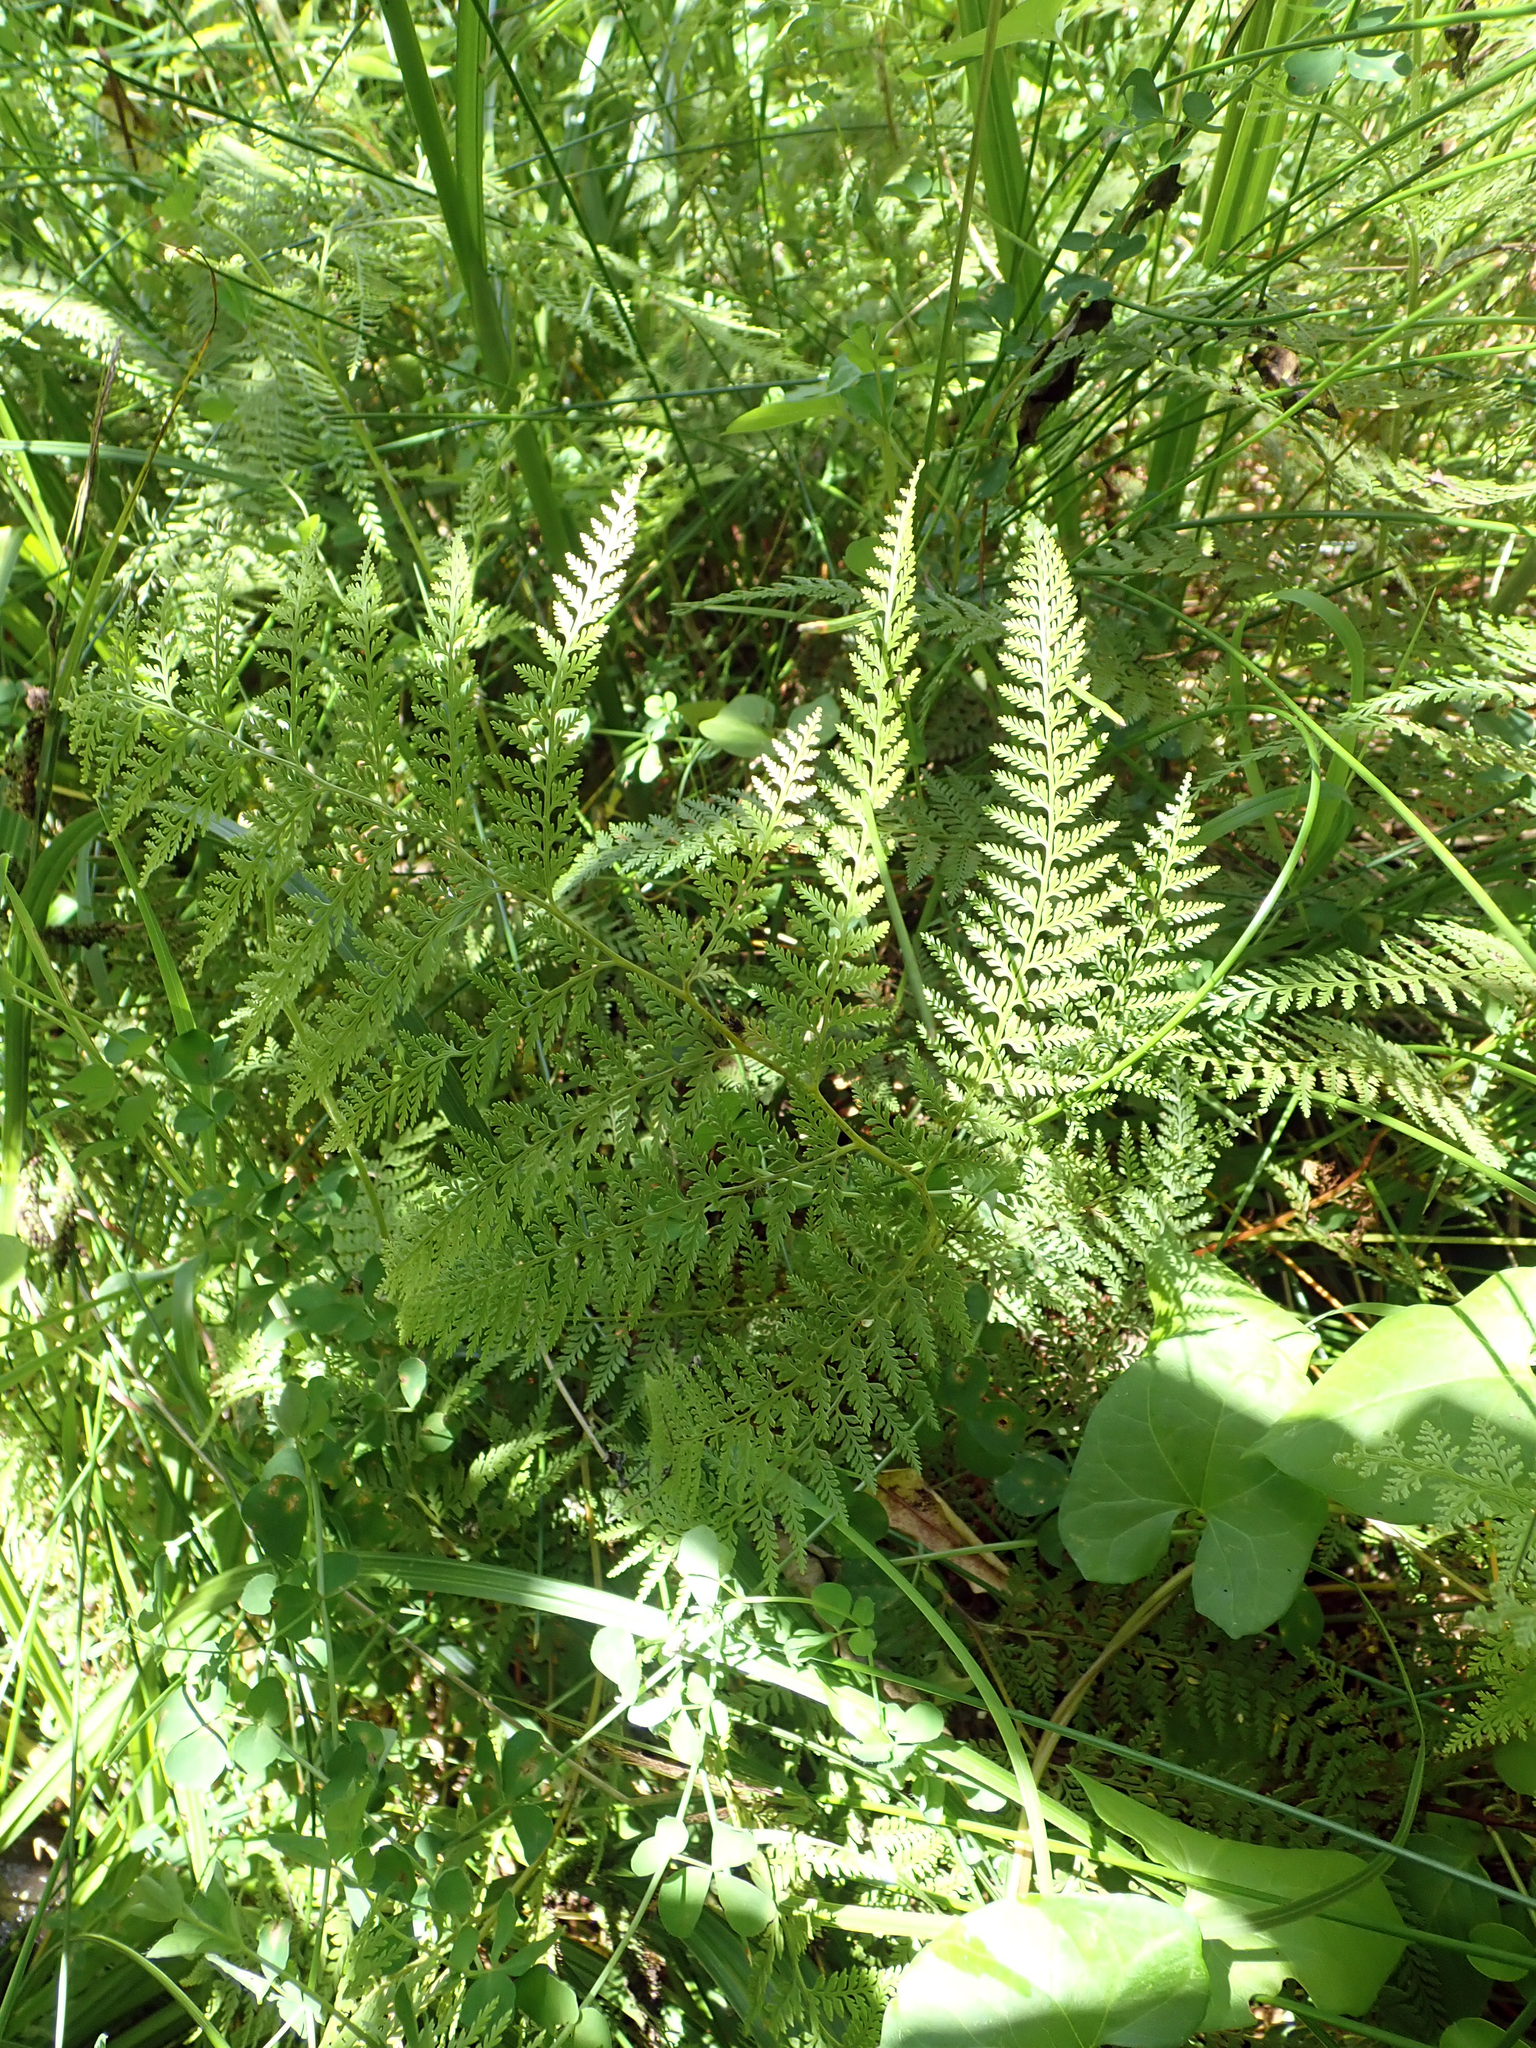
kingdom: Plantae
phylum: Tracheophyta
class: Polypodiopsida
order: Polypodiales
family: Dennstaedtiaceae
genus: Paesia
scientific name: Paesia scaberula
